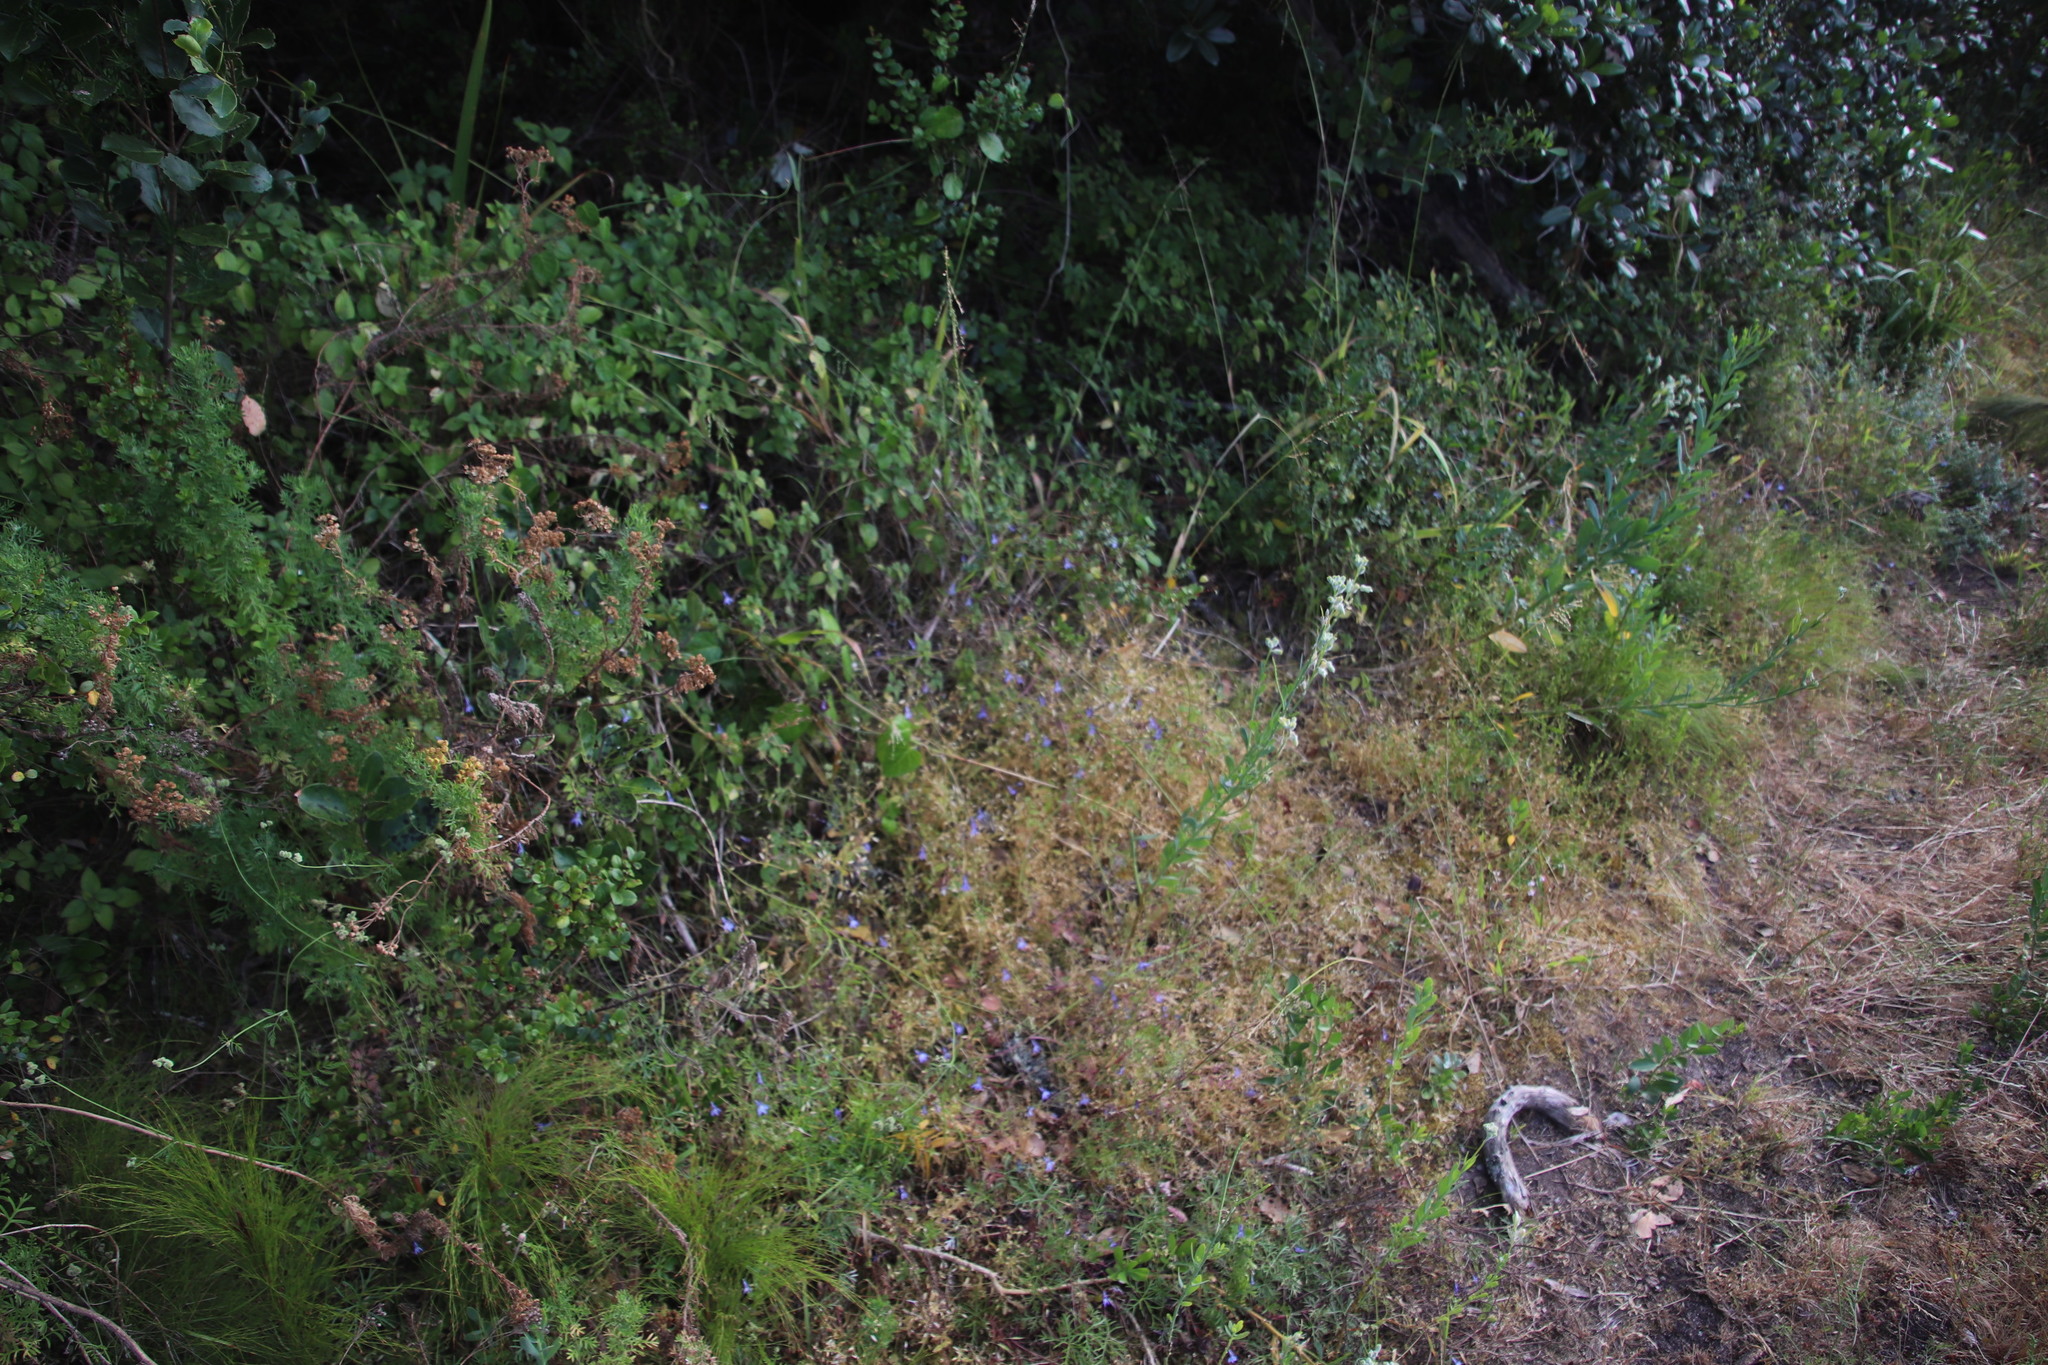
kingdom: Plantae
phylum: Tracheophyta
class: Magnoliopsida
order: Asterales
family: Campanulaceae
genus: Lobelia
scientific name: Lobelia erinus
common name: Edging lobelia
